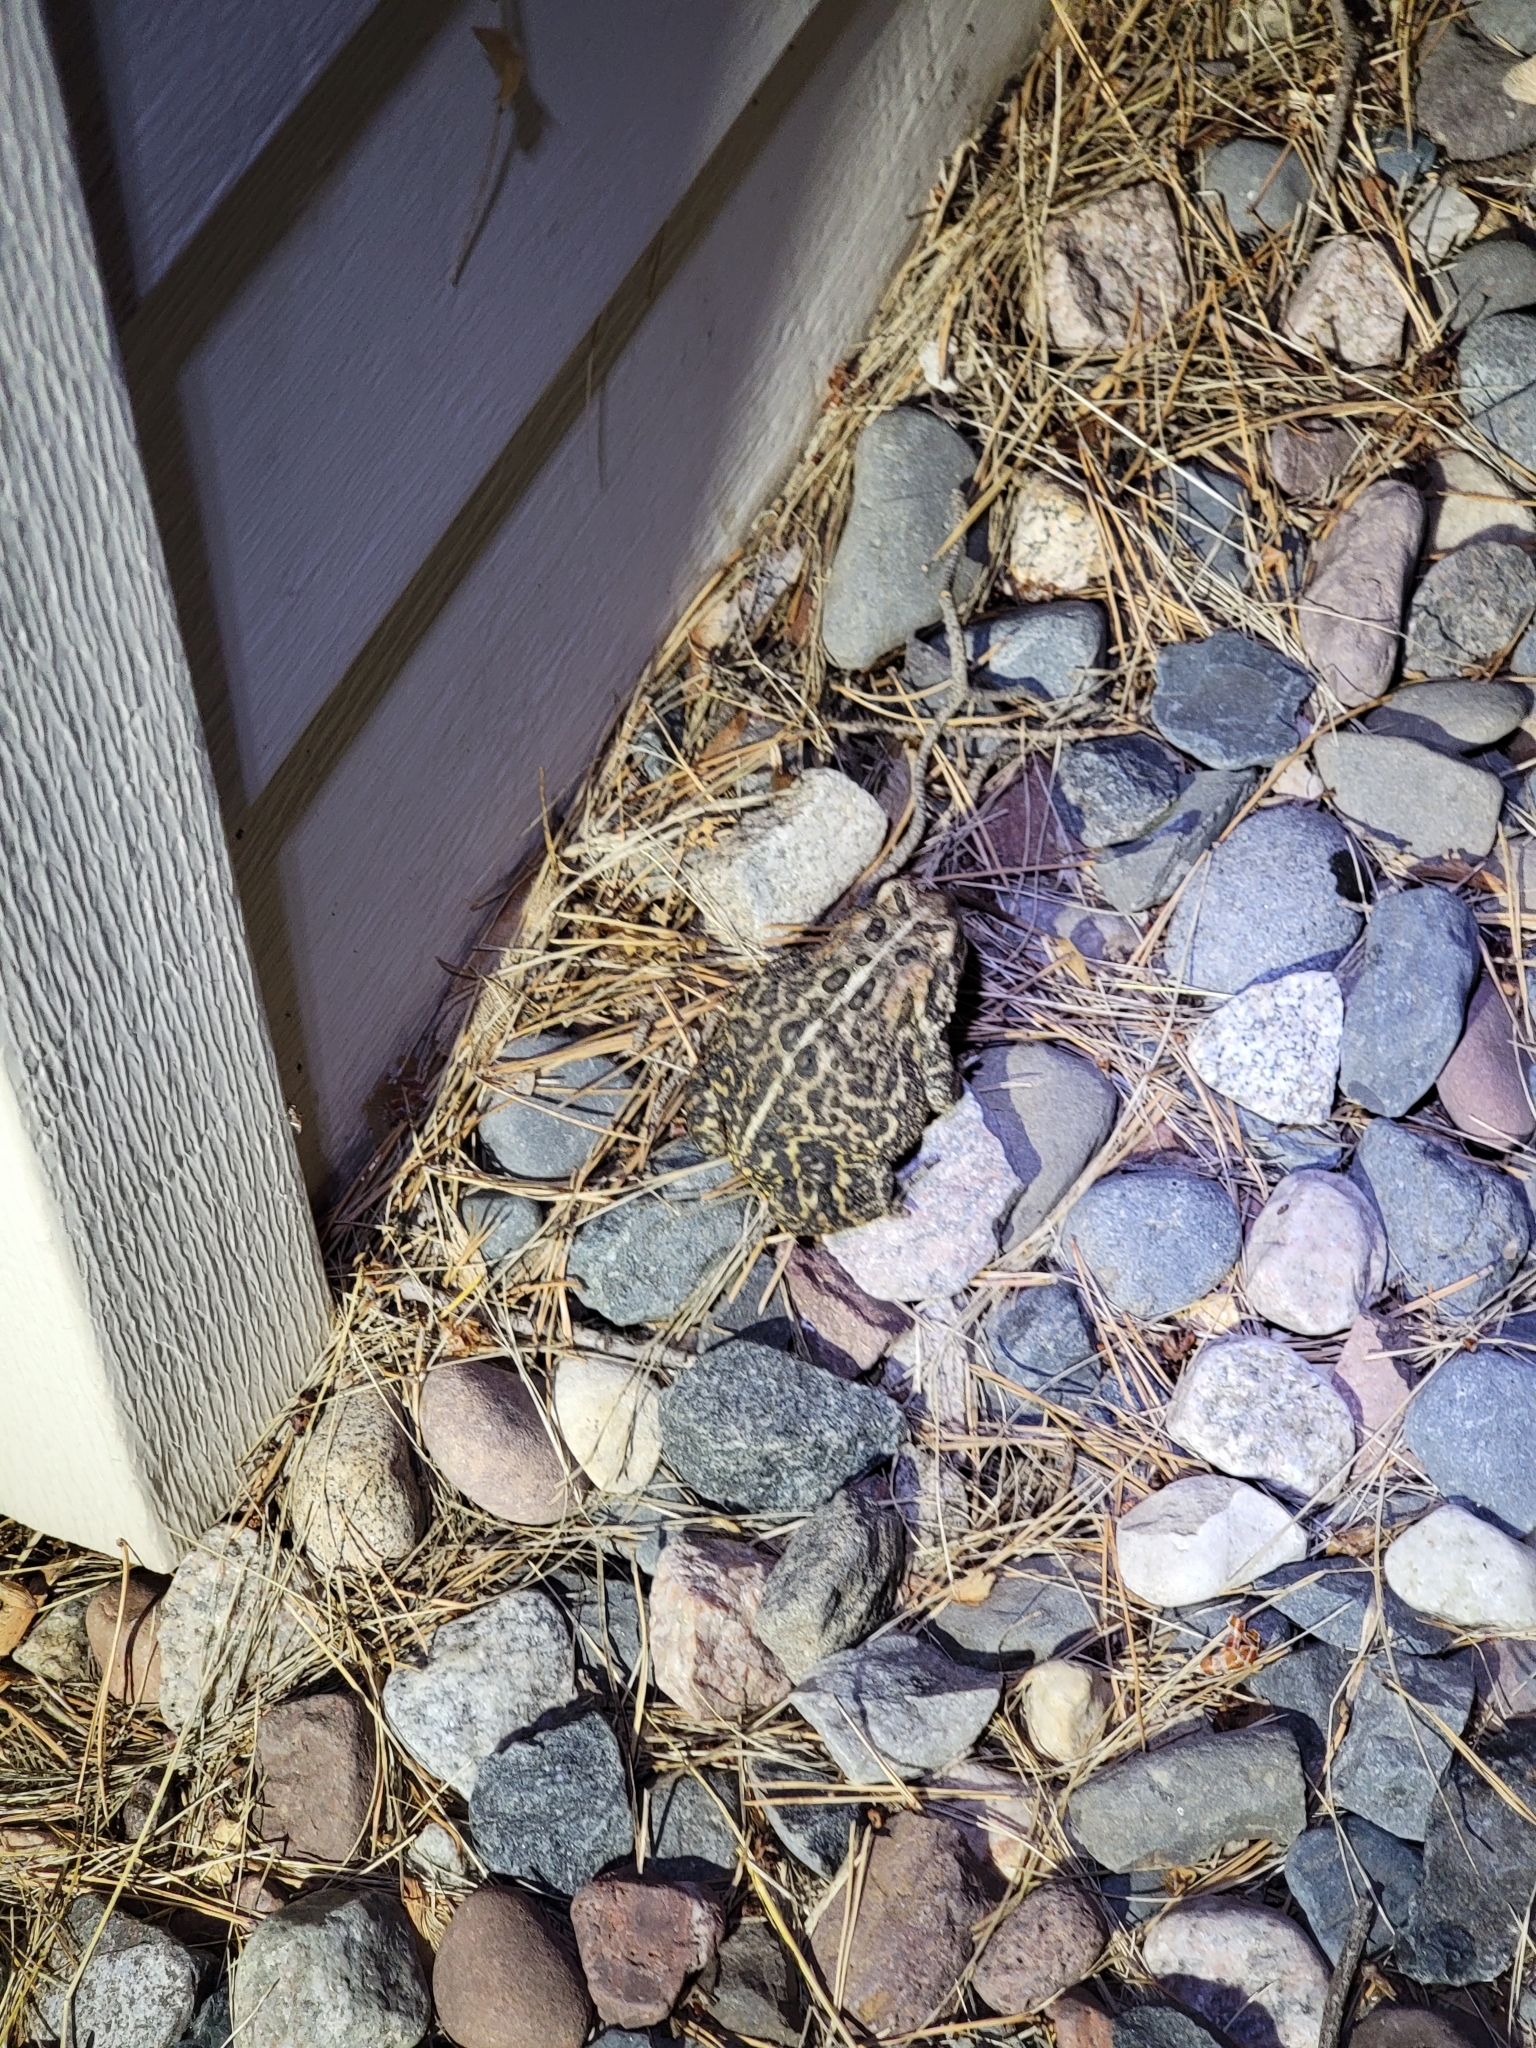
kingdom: Animalia
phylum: Chordata
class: Amphibia
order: Anura
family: Bufonidae
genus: Anaxyrus
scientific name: Anaxyrus americanus
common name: American toad
